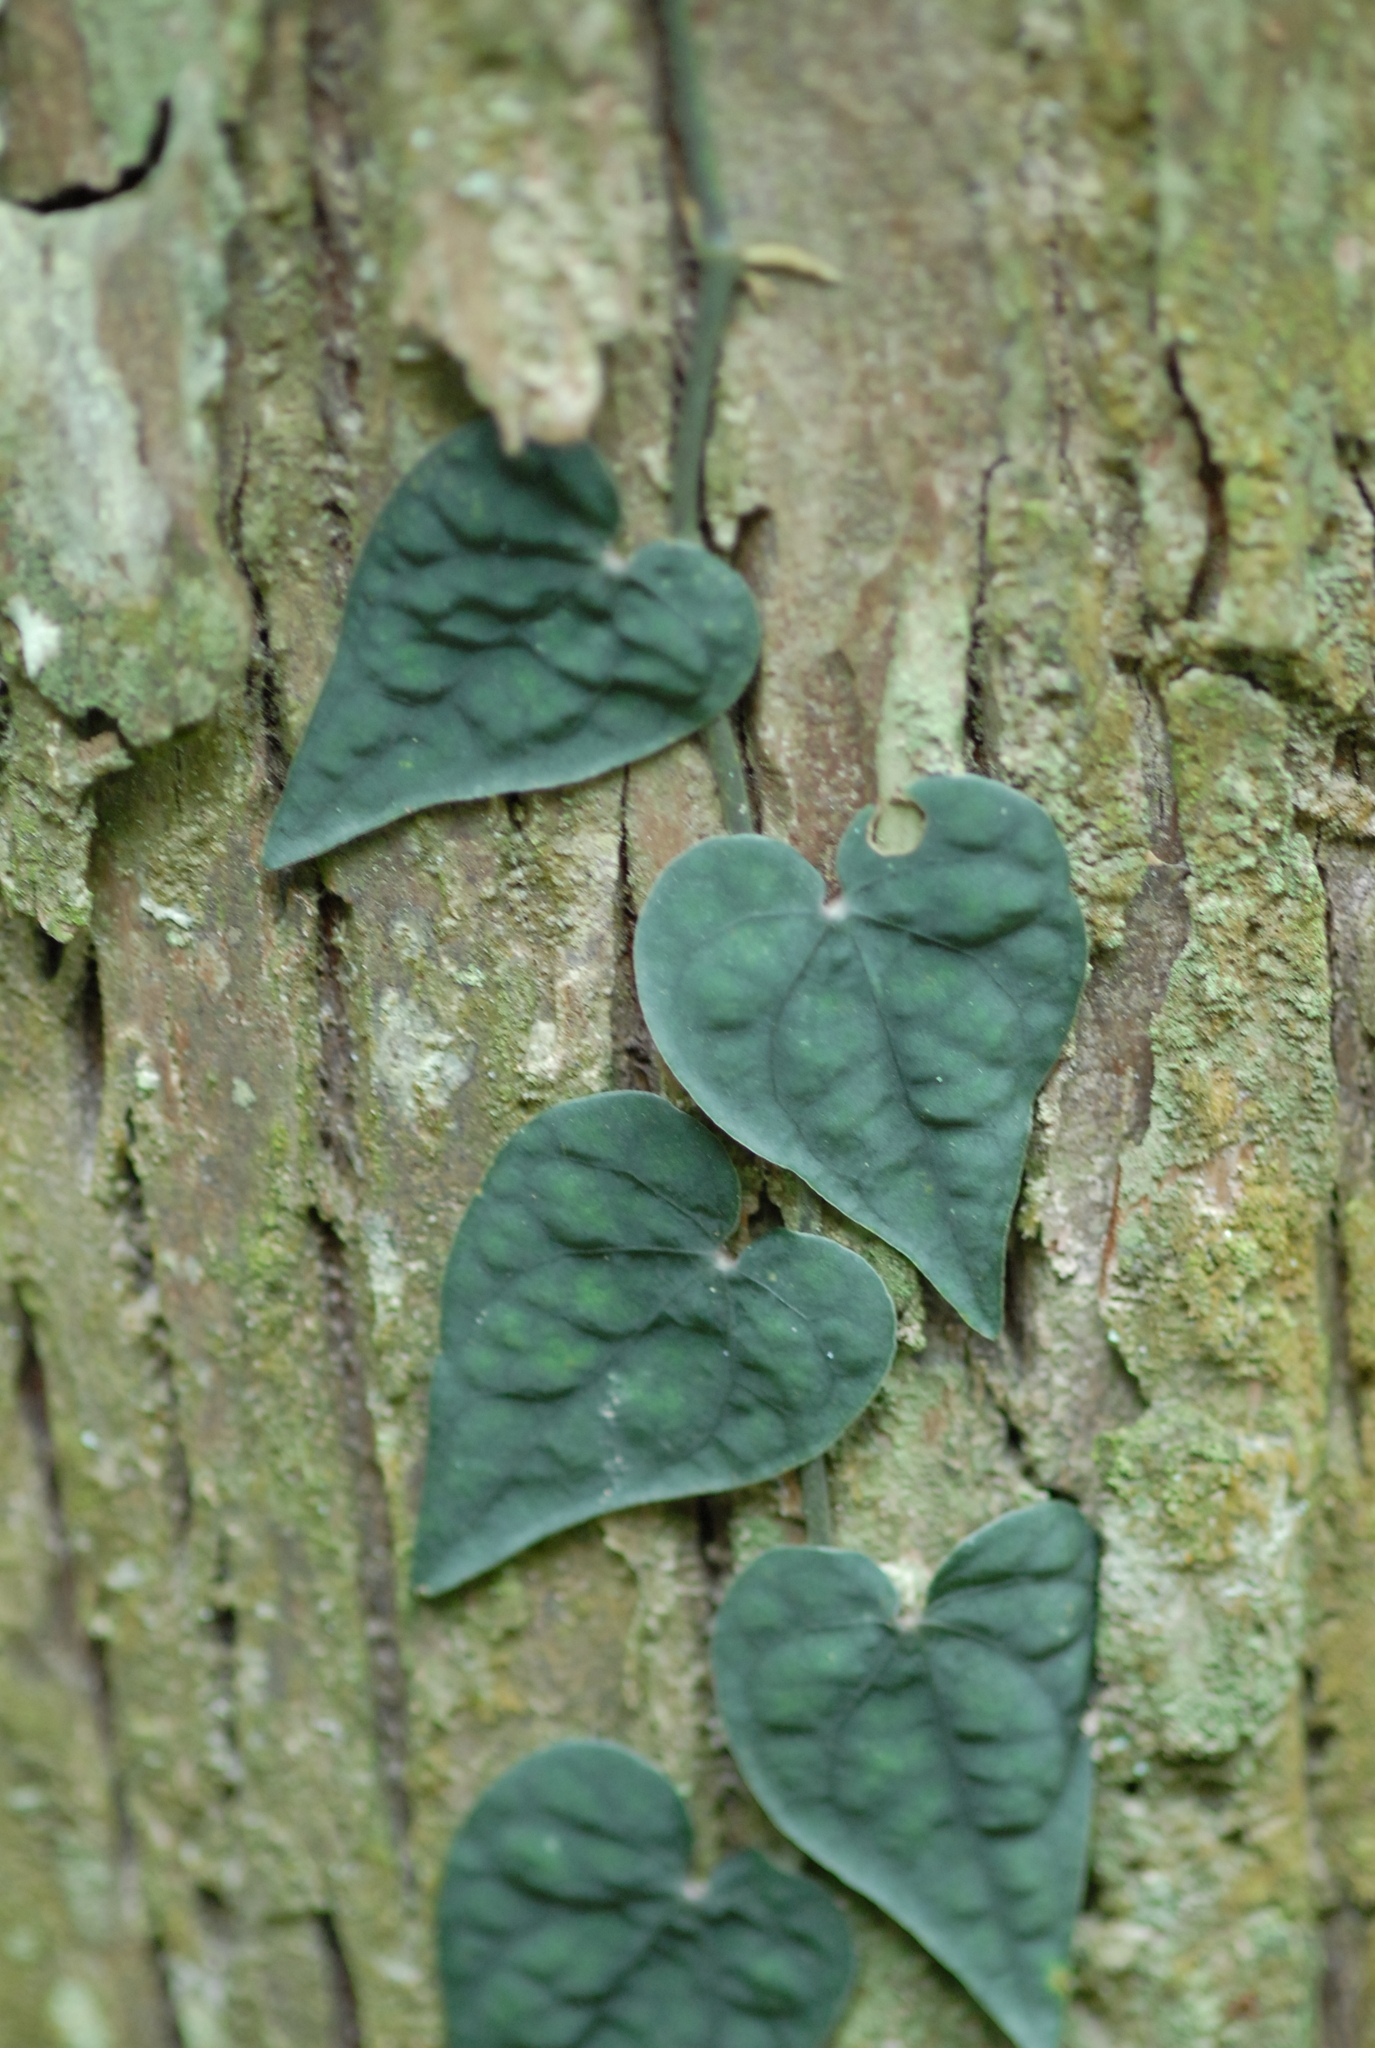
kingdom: Plantae
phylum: Tracheophyta
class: Magnoliopsida
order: Piperales
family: Piperaceae
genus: Piper
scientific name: Piper taiwanense
